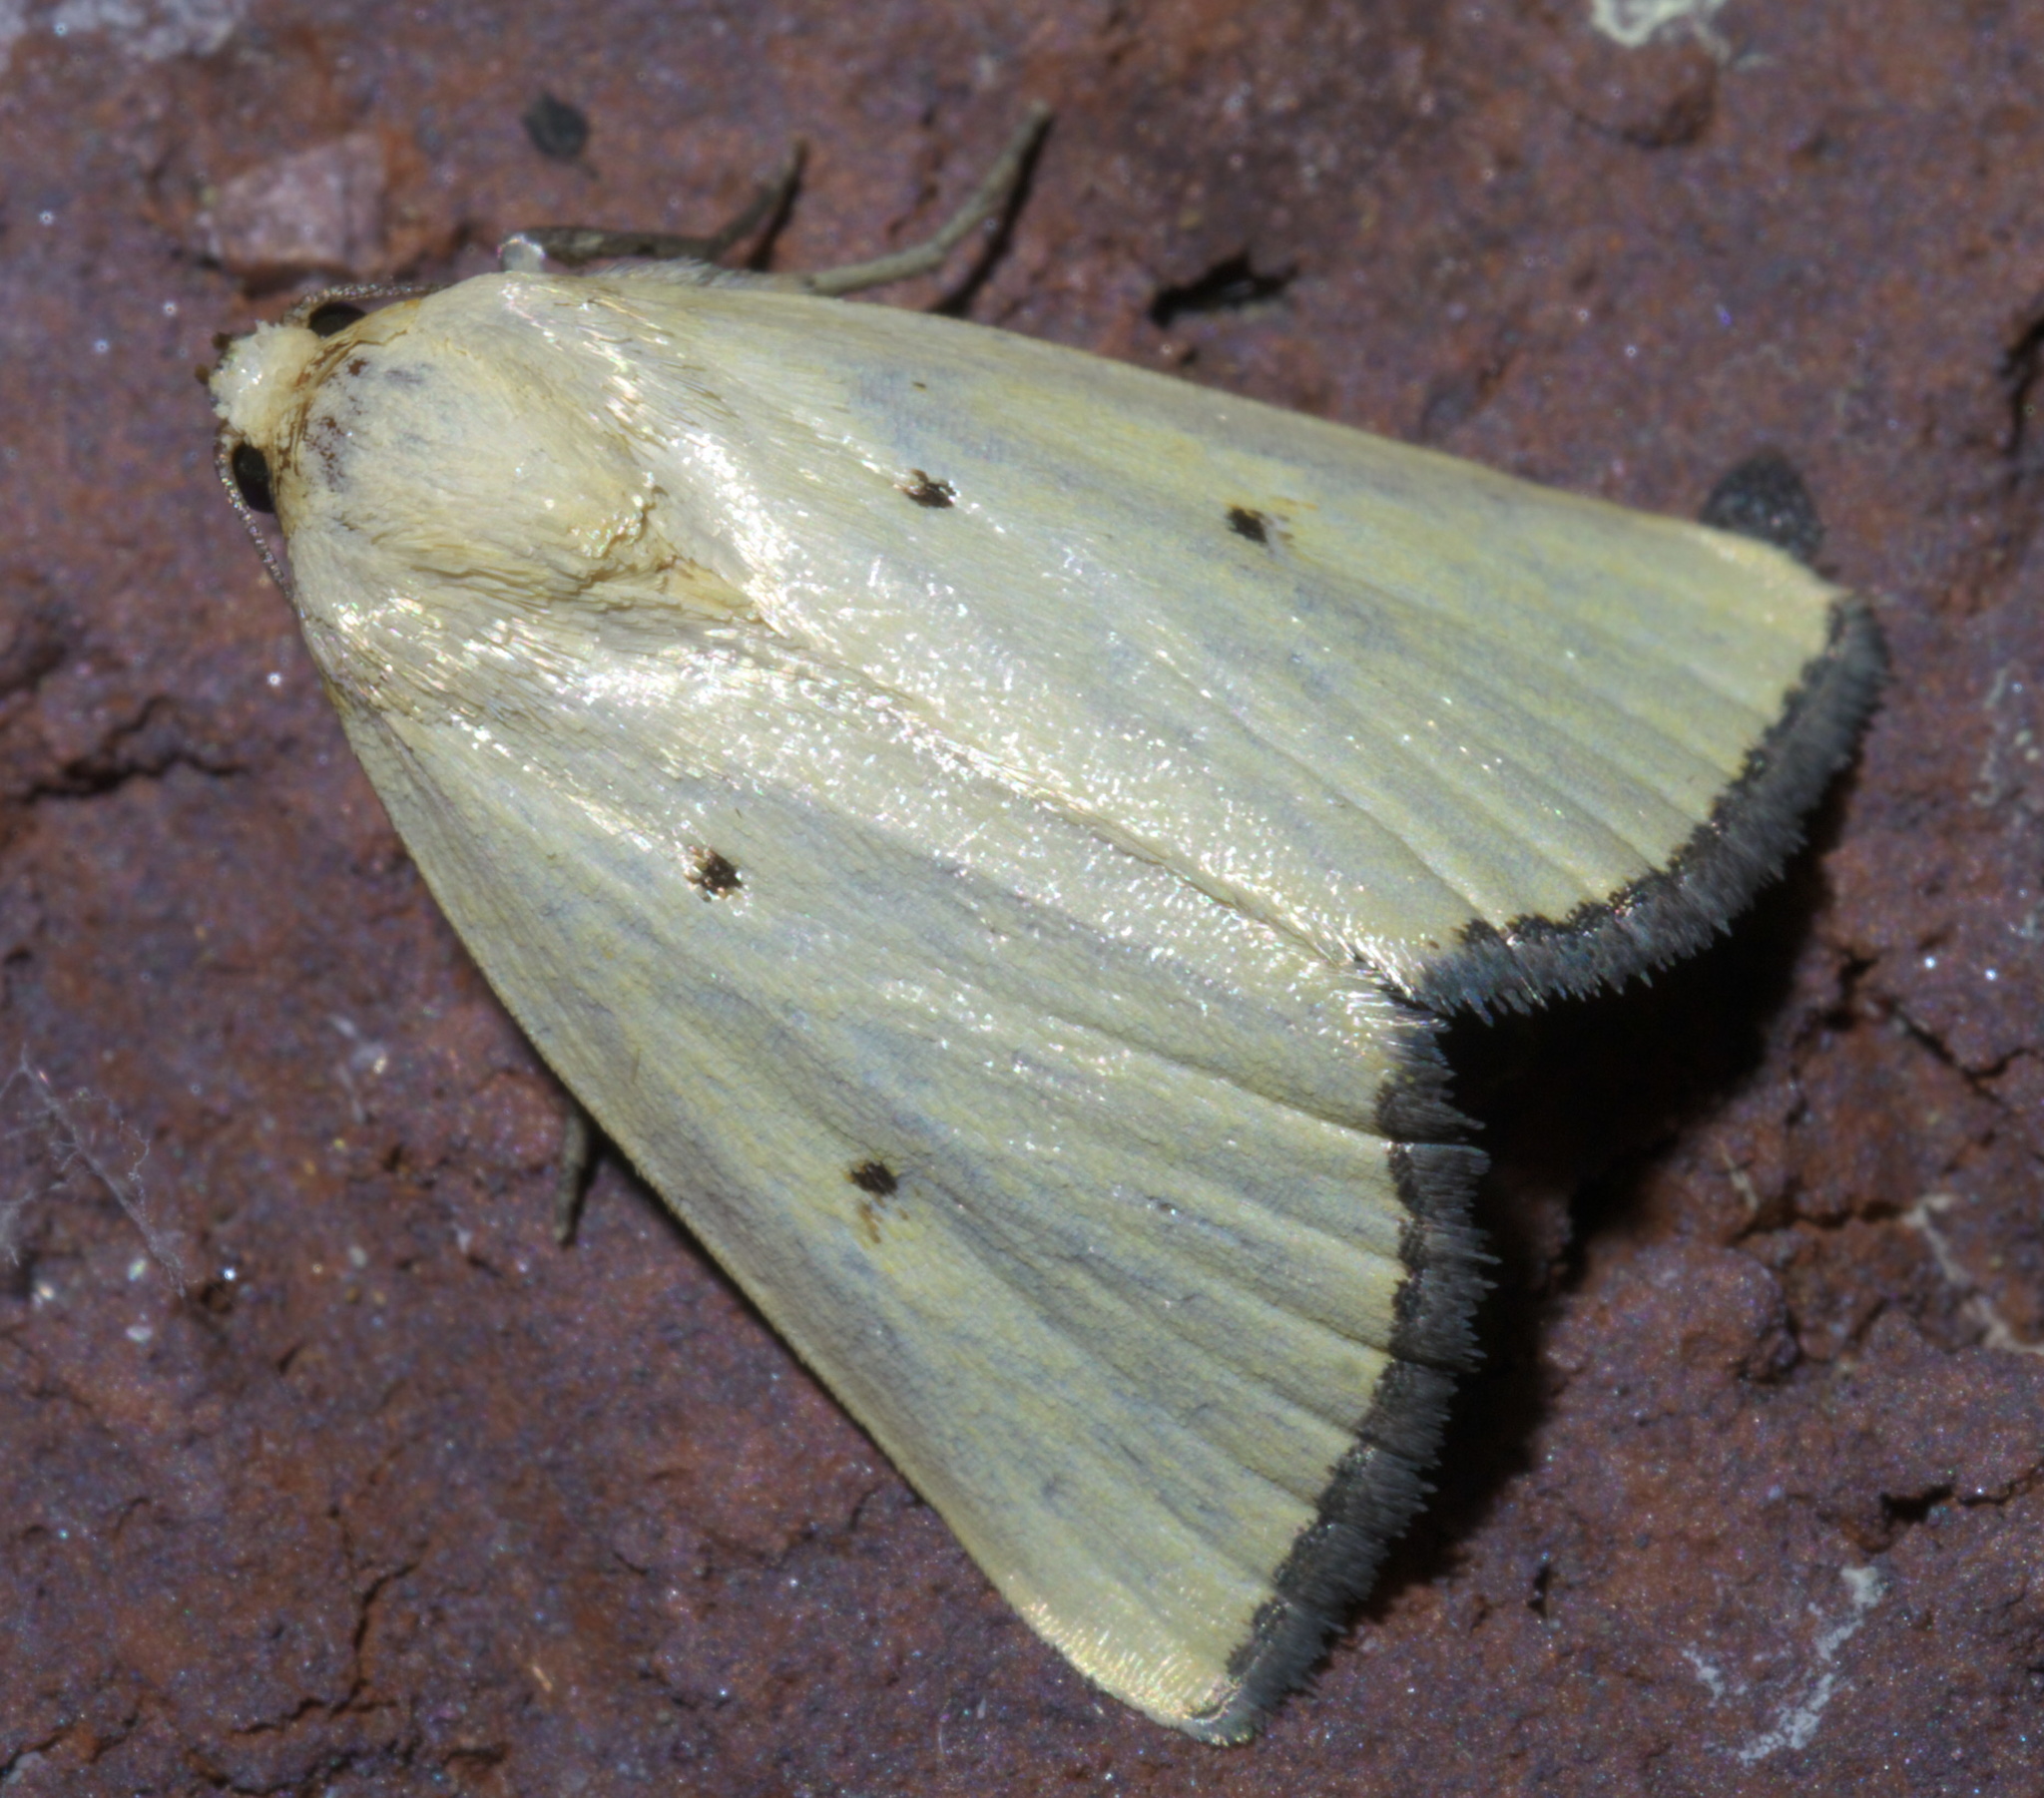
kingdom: Animalia
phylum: Arthropoda
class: Insecta
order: Lepidoptera
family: Noctuidae
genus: Marimatha
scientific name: Marimatha nigrofimbria
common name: Black-bordered lemon moth
